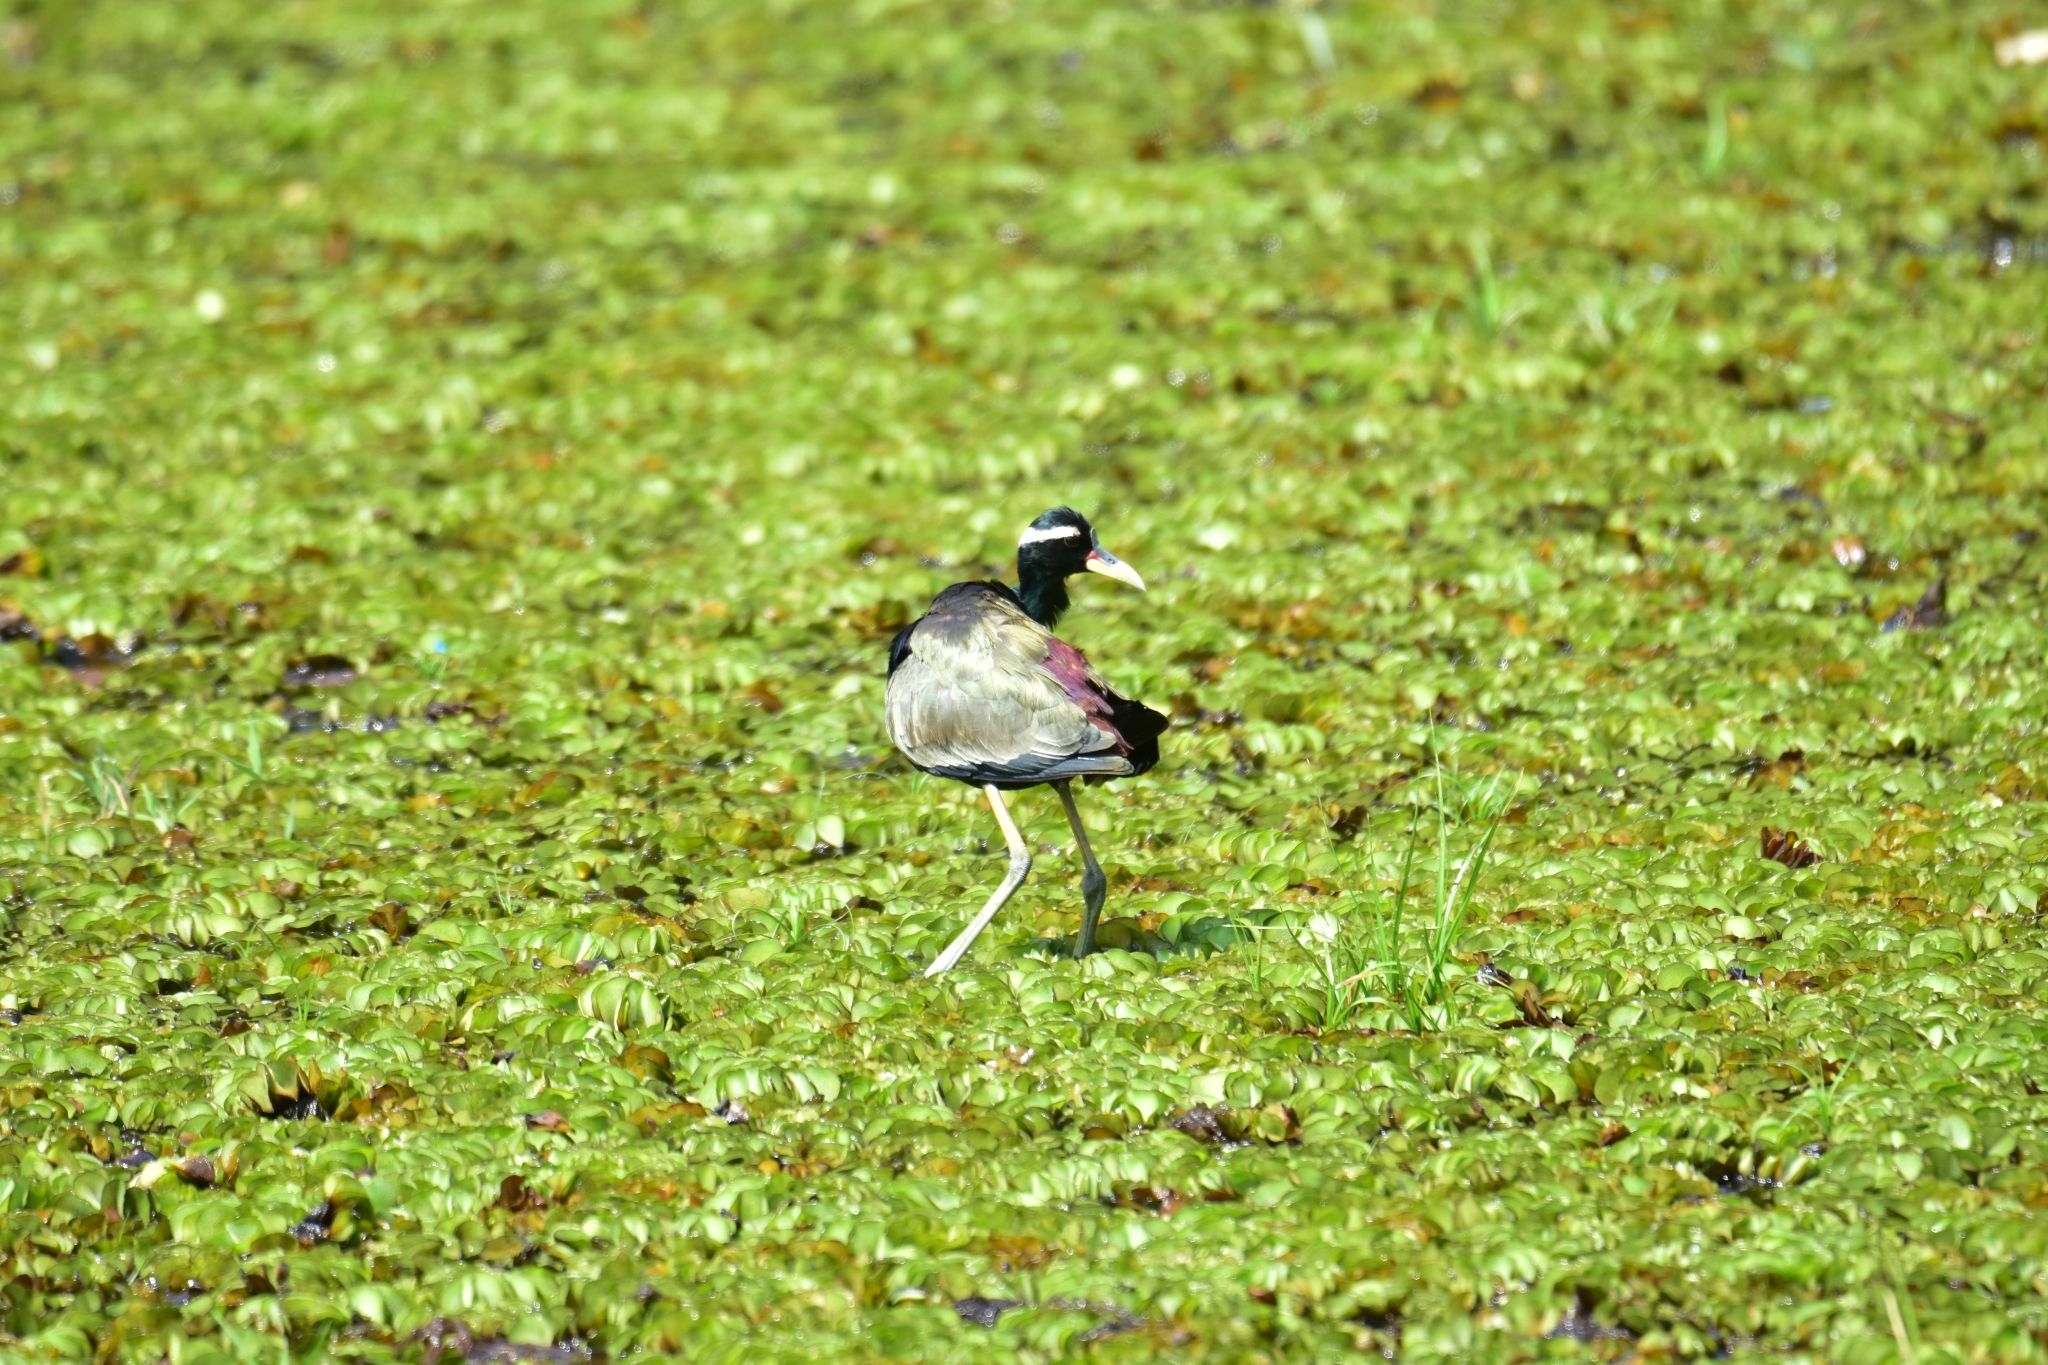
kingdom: Animalia
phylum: Chordata
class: Aves
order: Charadriiformes
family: Jacanidae
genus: Metopidius
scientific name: Metopidius indicus
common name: Bronze-winged jacana
